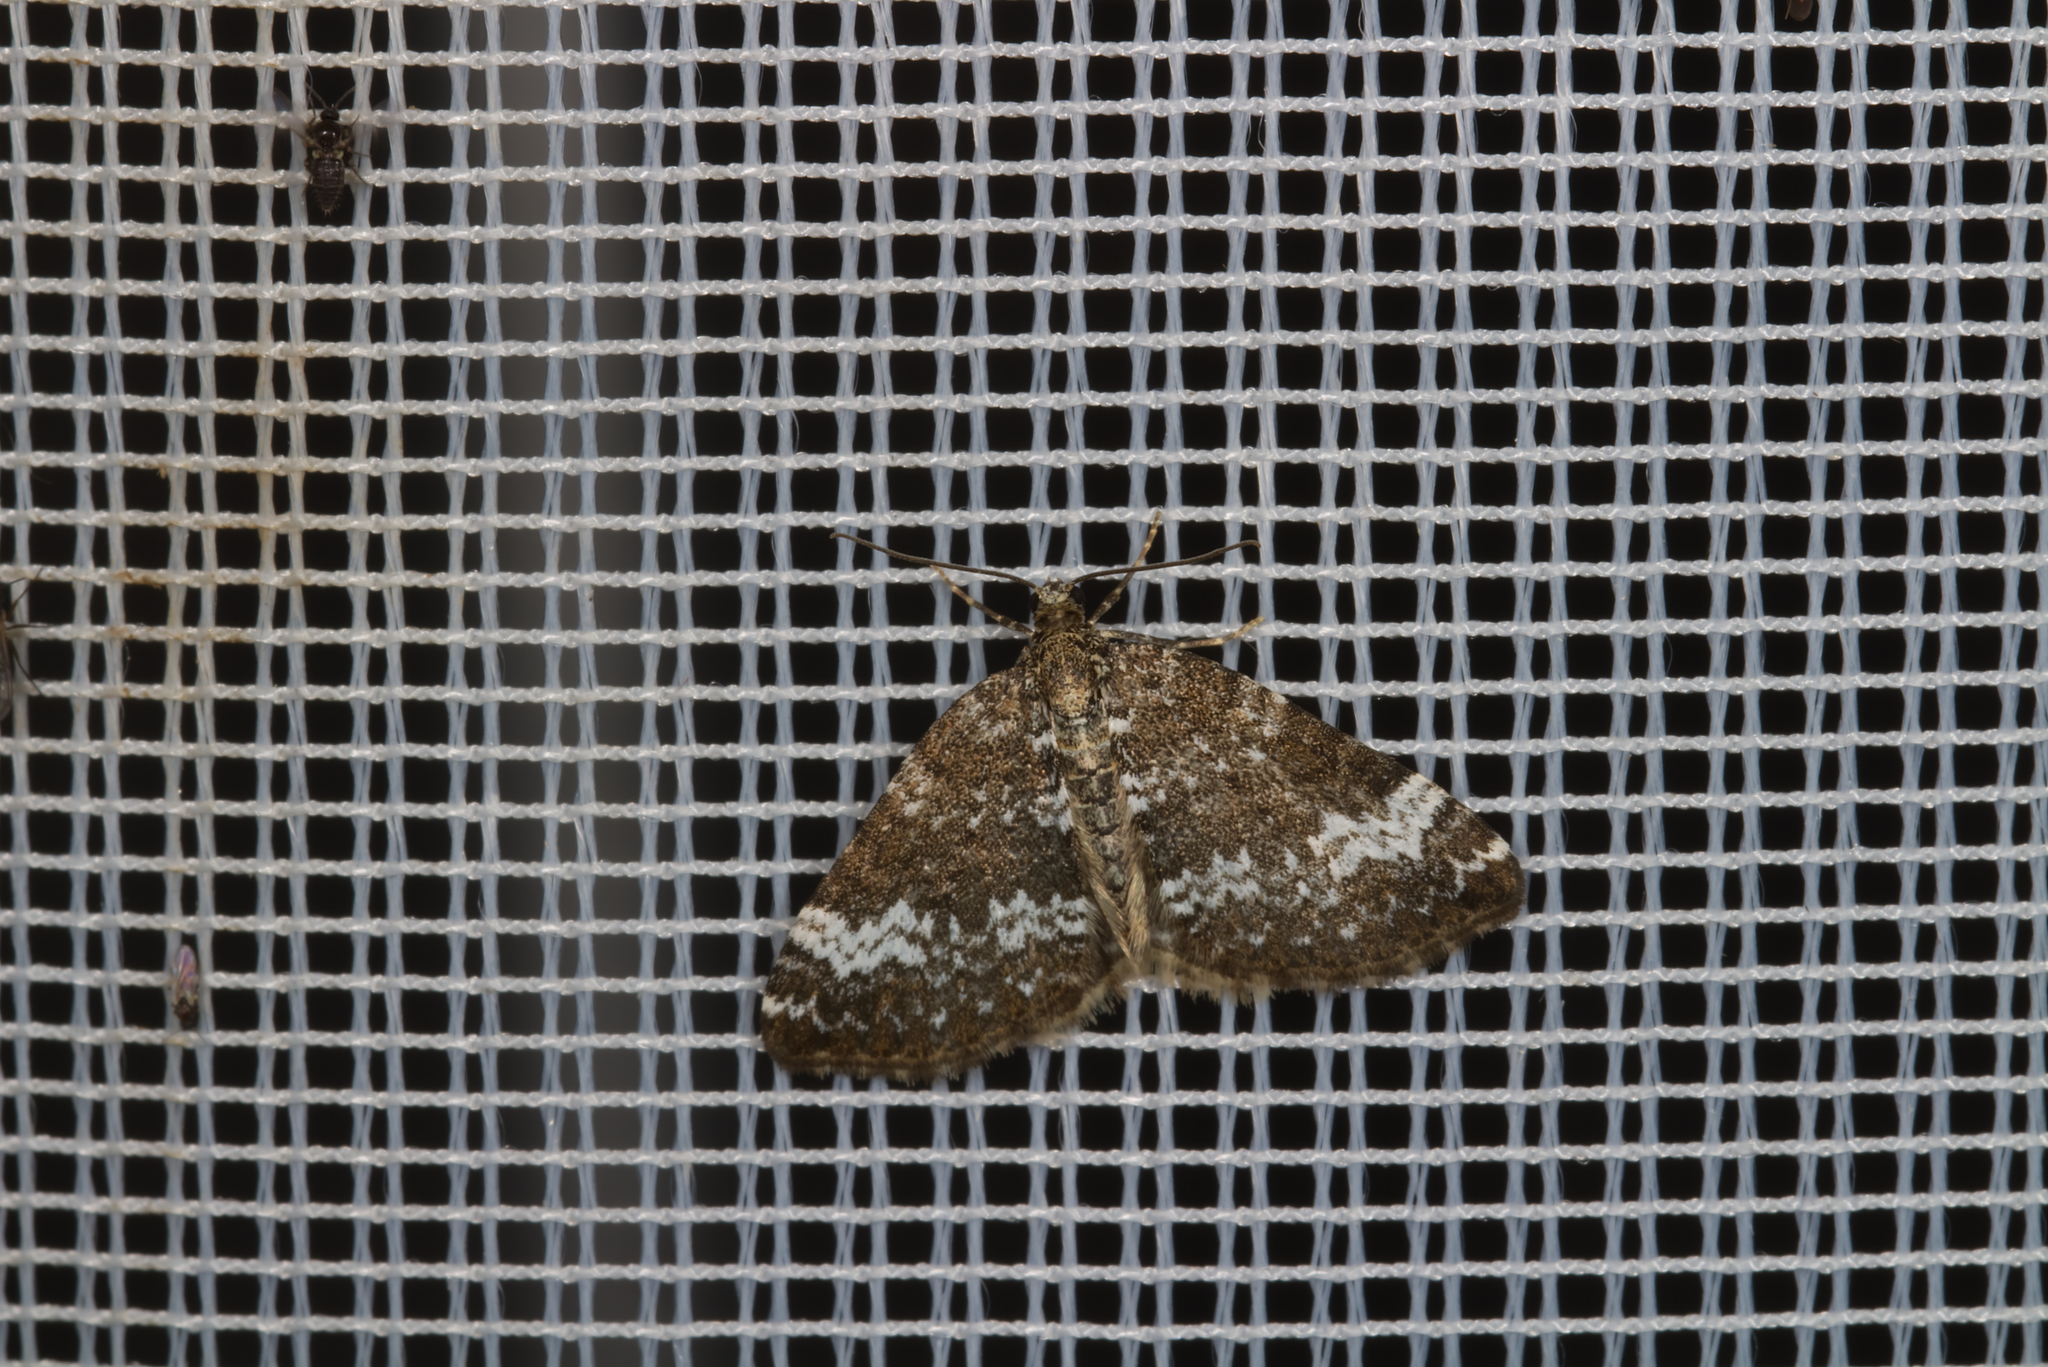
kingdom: Animalia
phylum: Arthropoda
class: Insecta
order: Lepidoptera
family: Geometridae
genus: Perizoma
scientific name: Perizoma alchemillata
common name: Small rivulet
